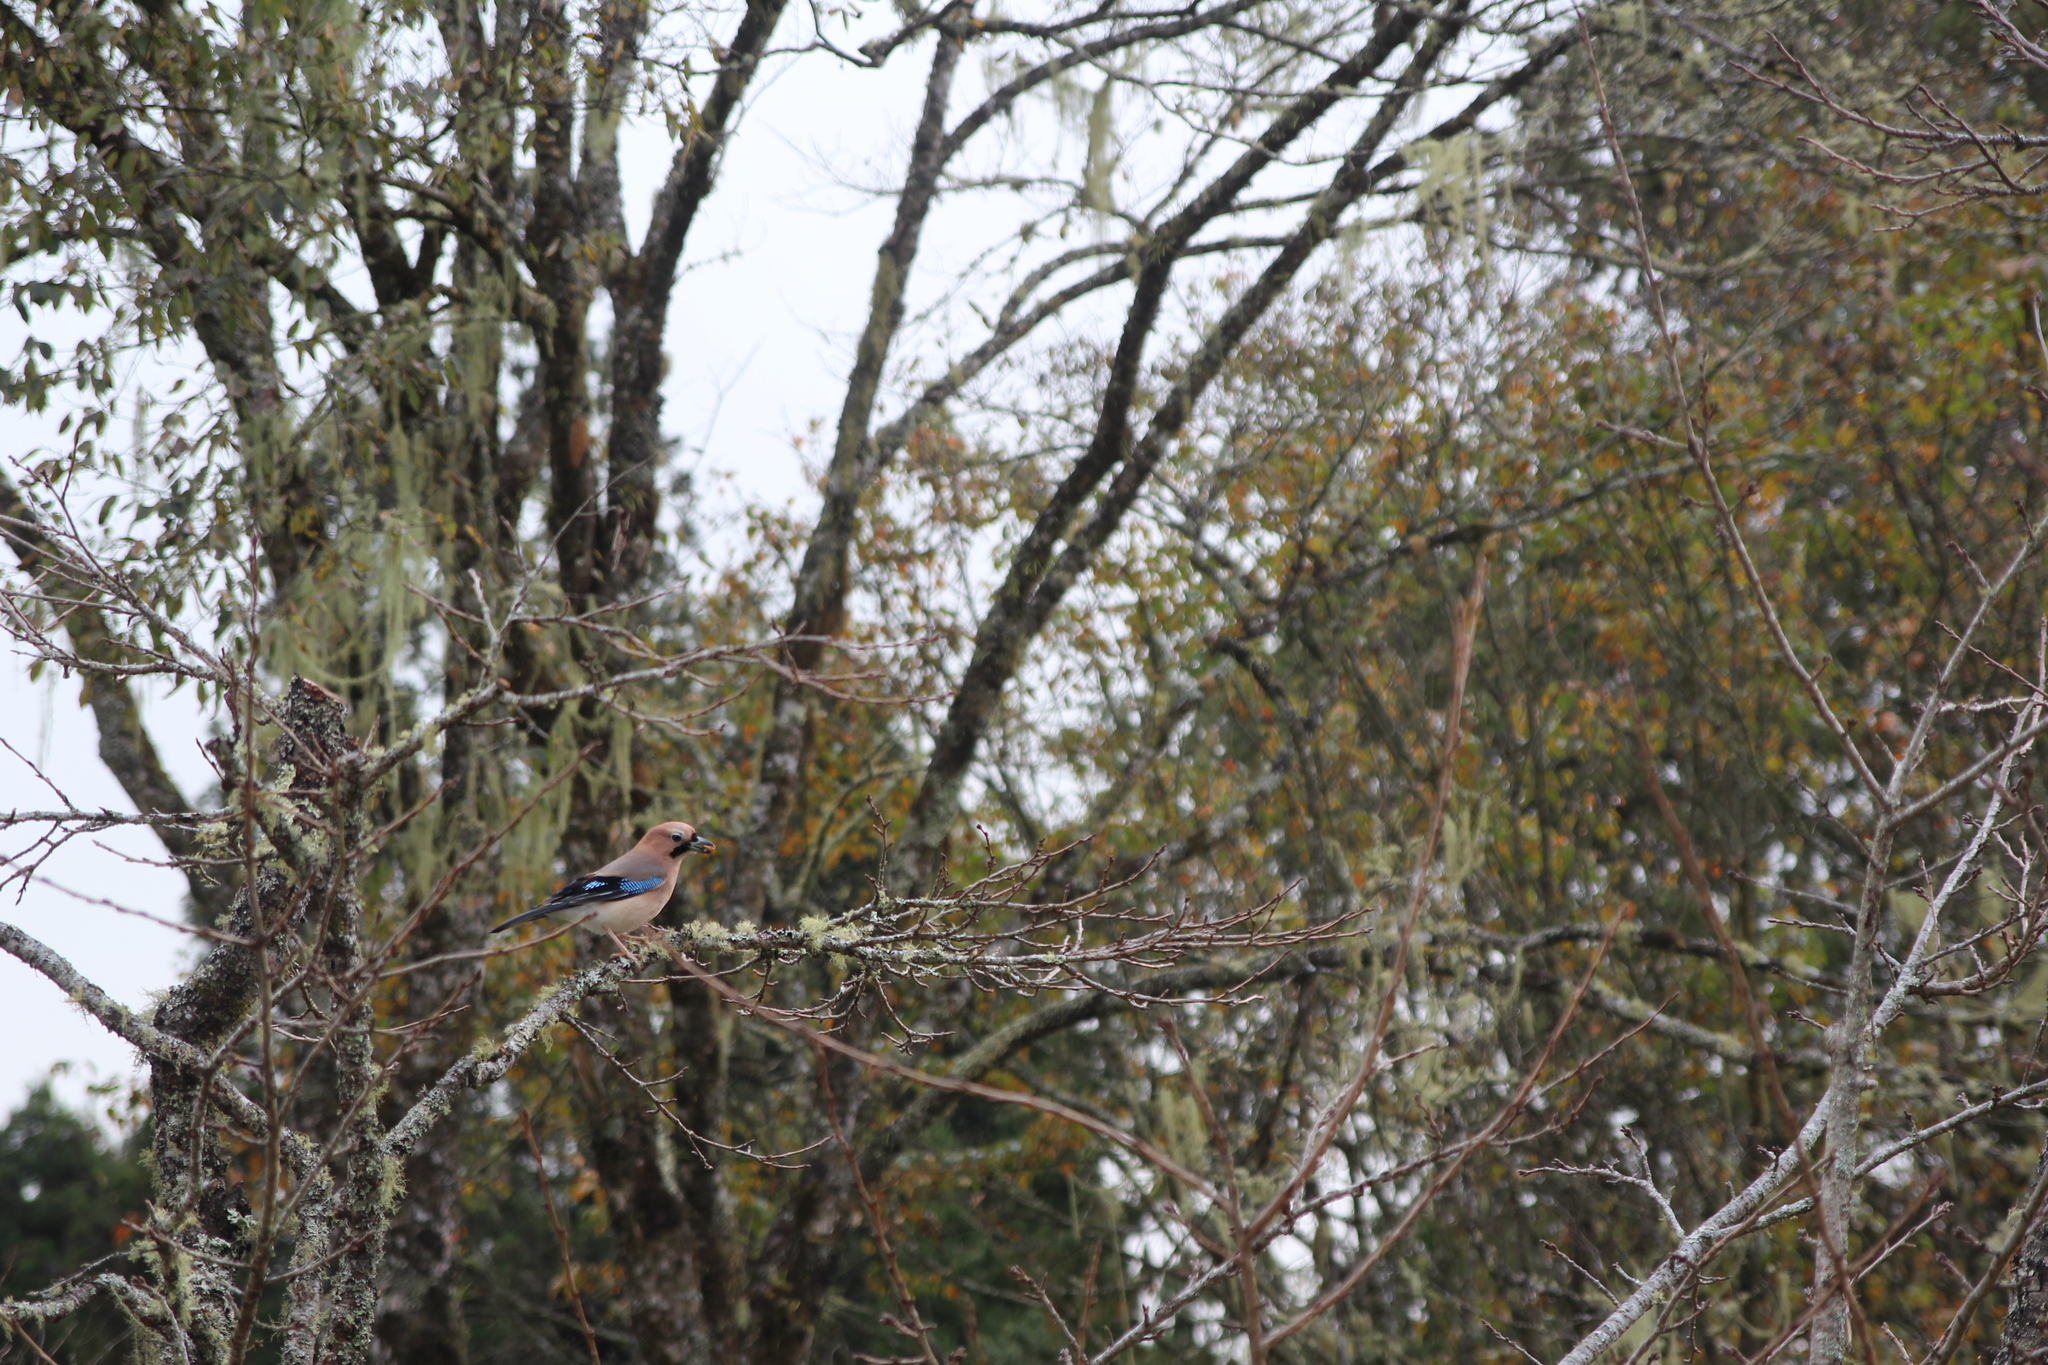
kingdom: Animalia
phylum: Chordata
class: Aves
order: Passeriformes
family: Corvidae
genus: Garrulus
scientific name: Garrulus glandarius
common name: Eurasian jay
